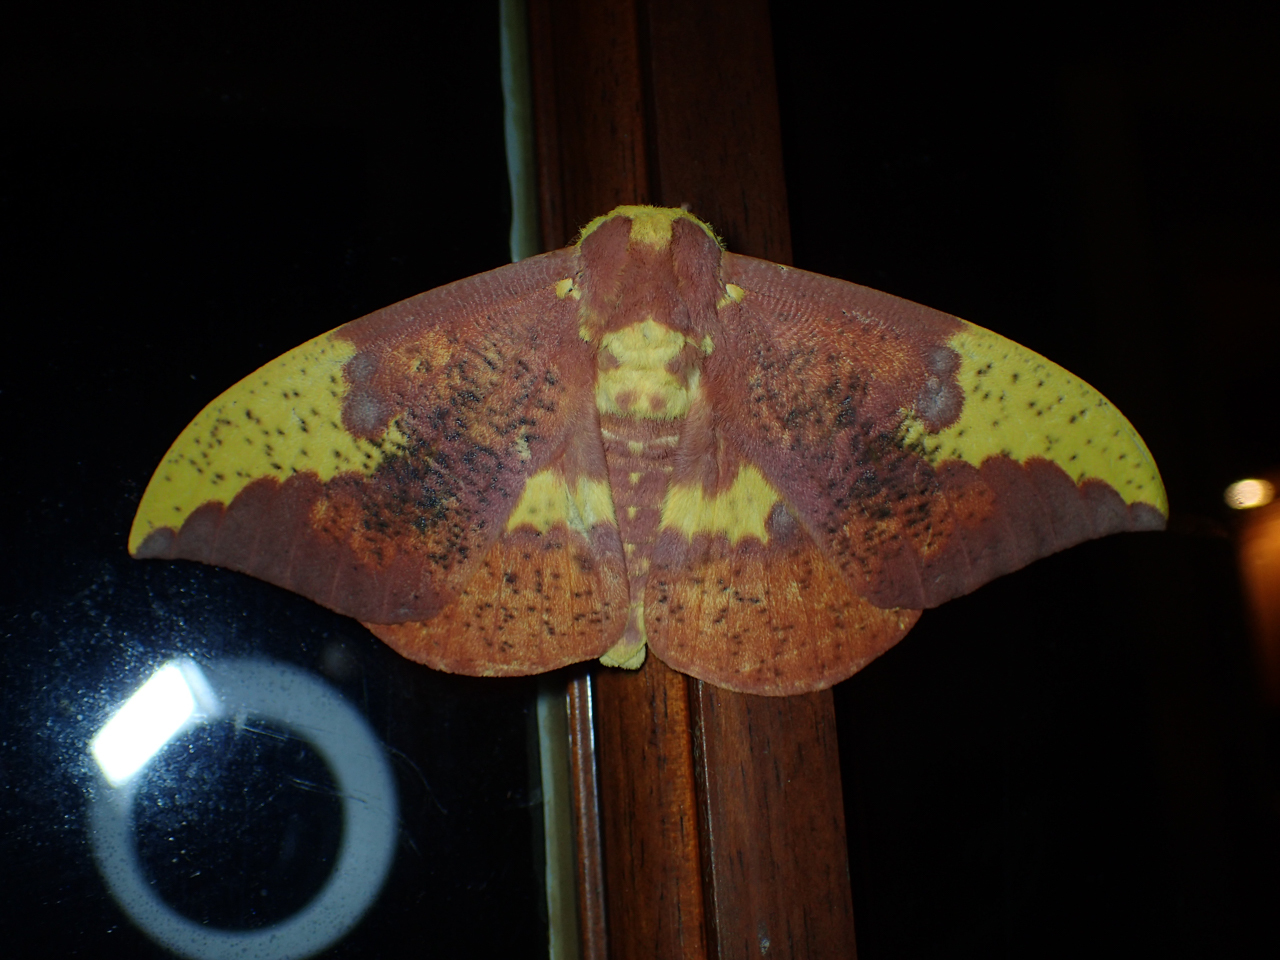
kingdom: Animalia
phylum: Arthropoda
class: Insecta
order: Lepidoptera
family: Saturniidae
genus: Eacles
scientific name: Eacles imperialis
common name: Imperial moth
